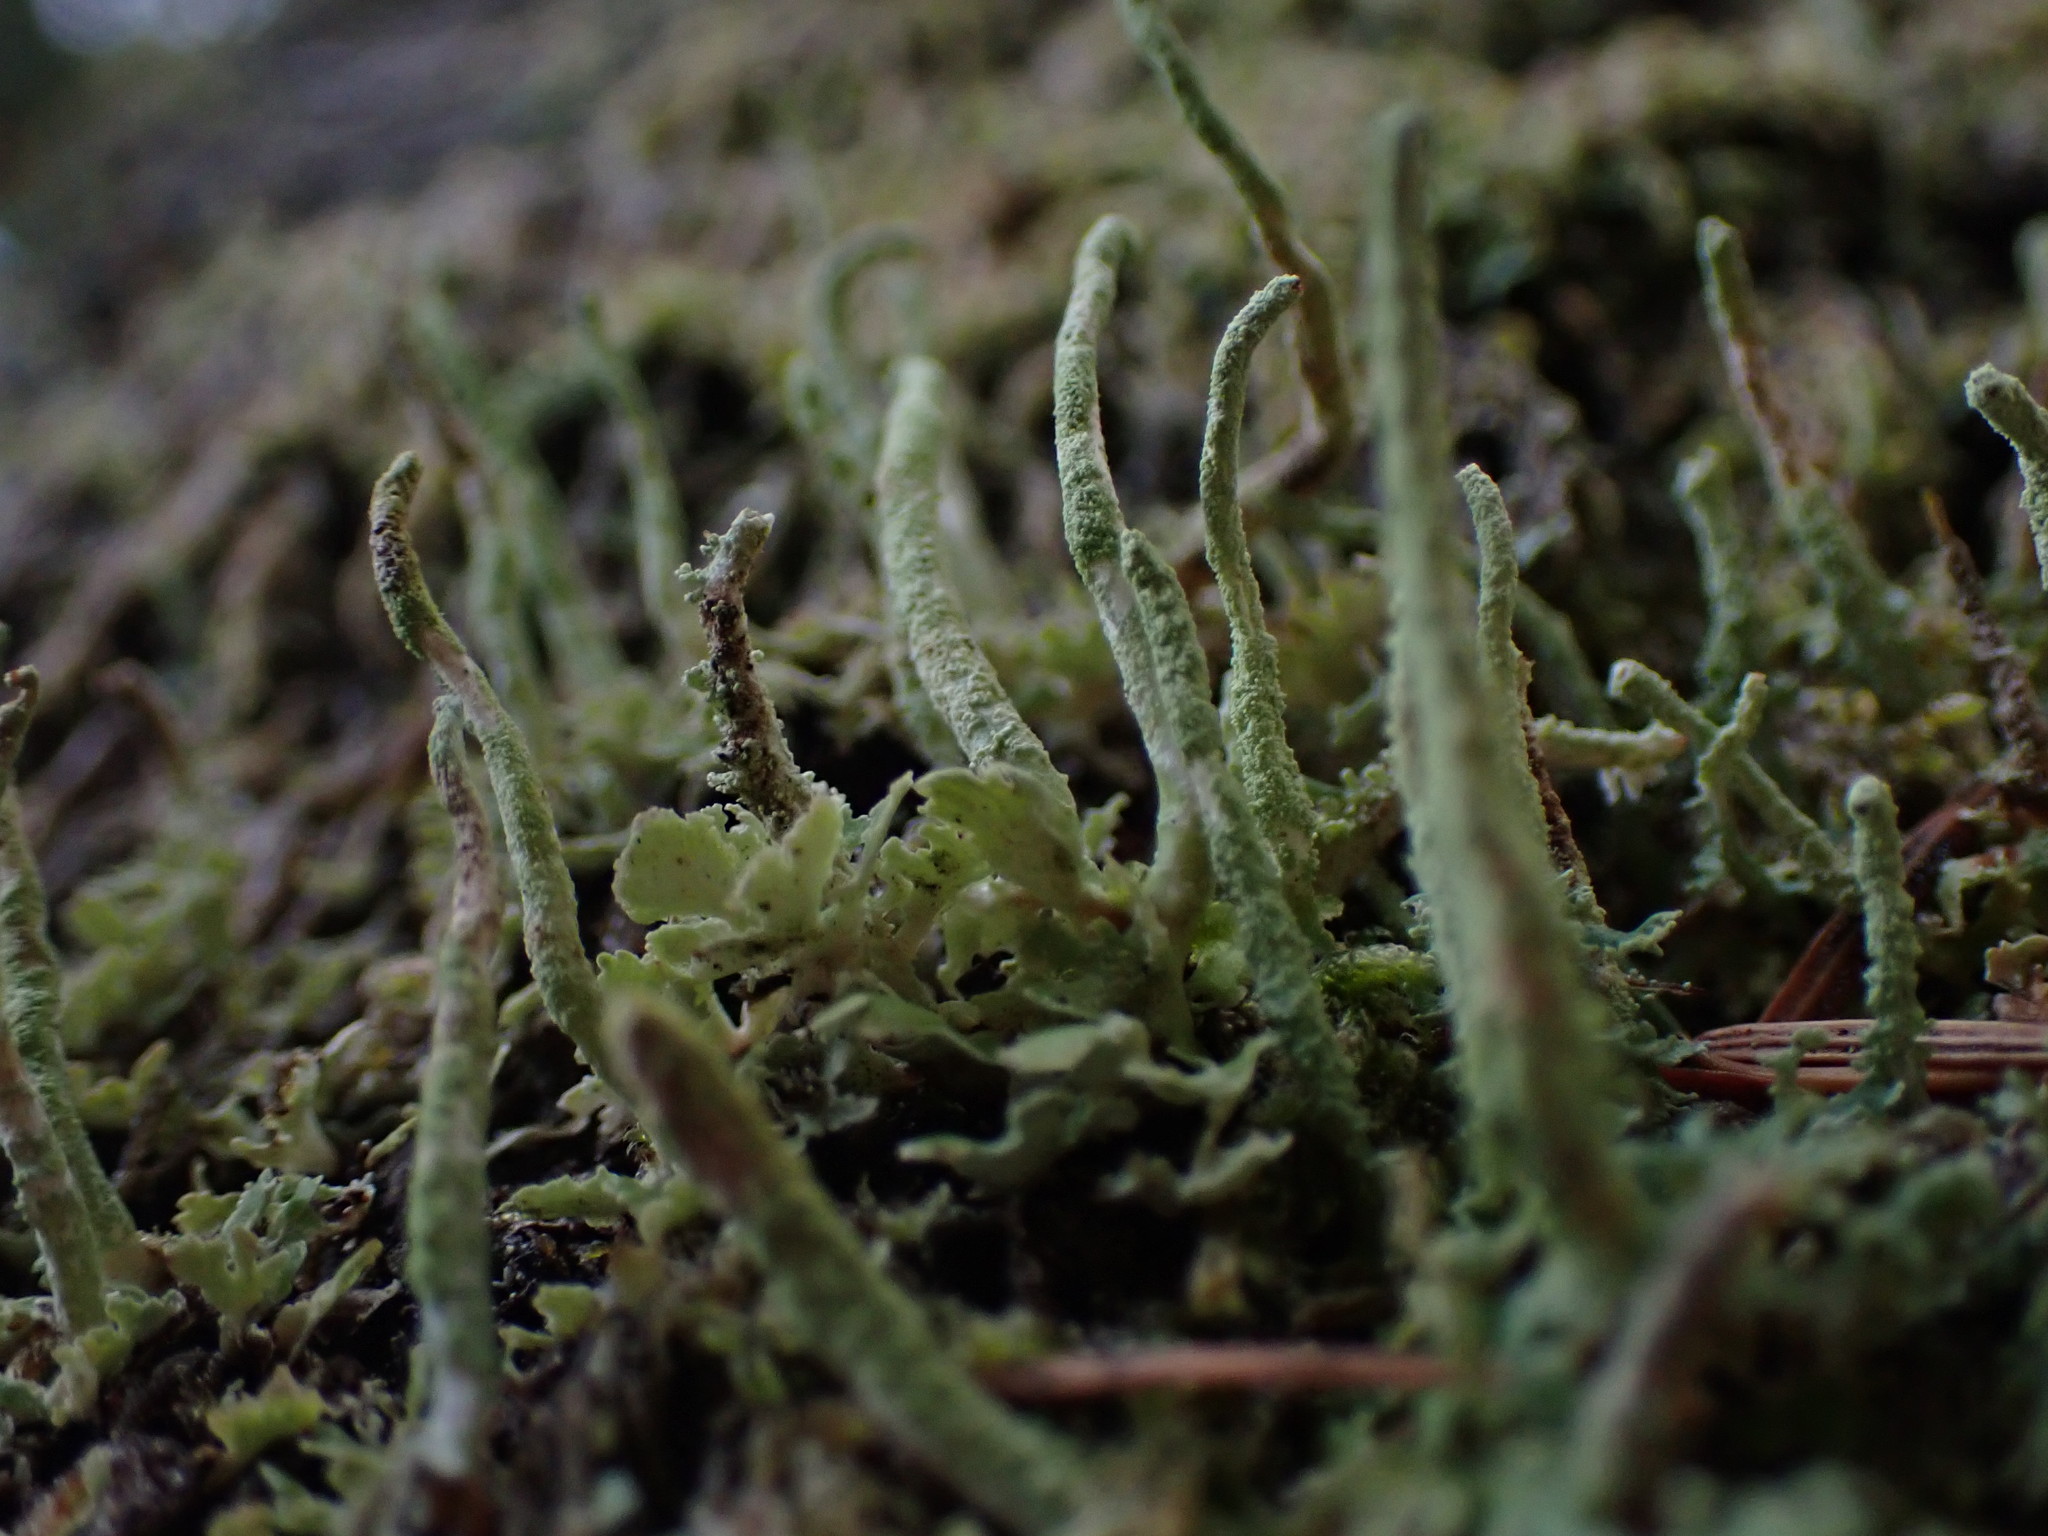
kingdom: Fungi
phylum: Ascomycota
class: Lecanoromycetes
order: Lecanorales
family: Cladoniaceae
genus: Cladonia
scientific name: Cladonia coniocraea
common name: Common powderhorn
